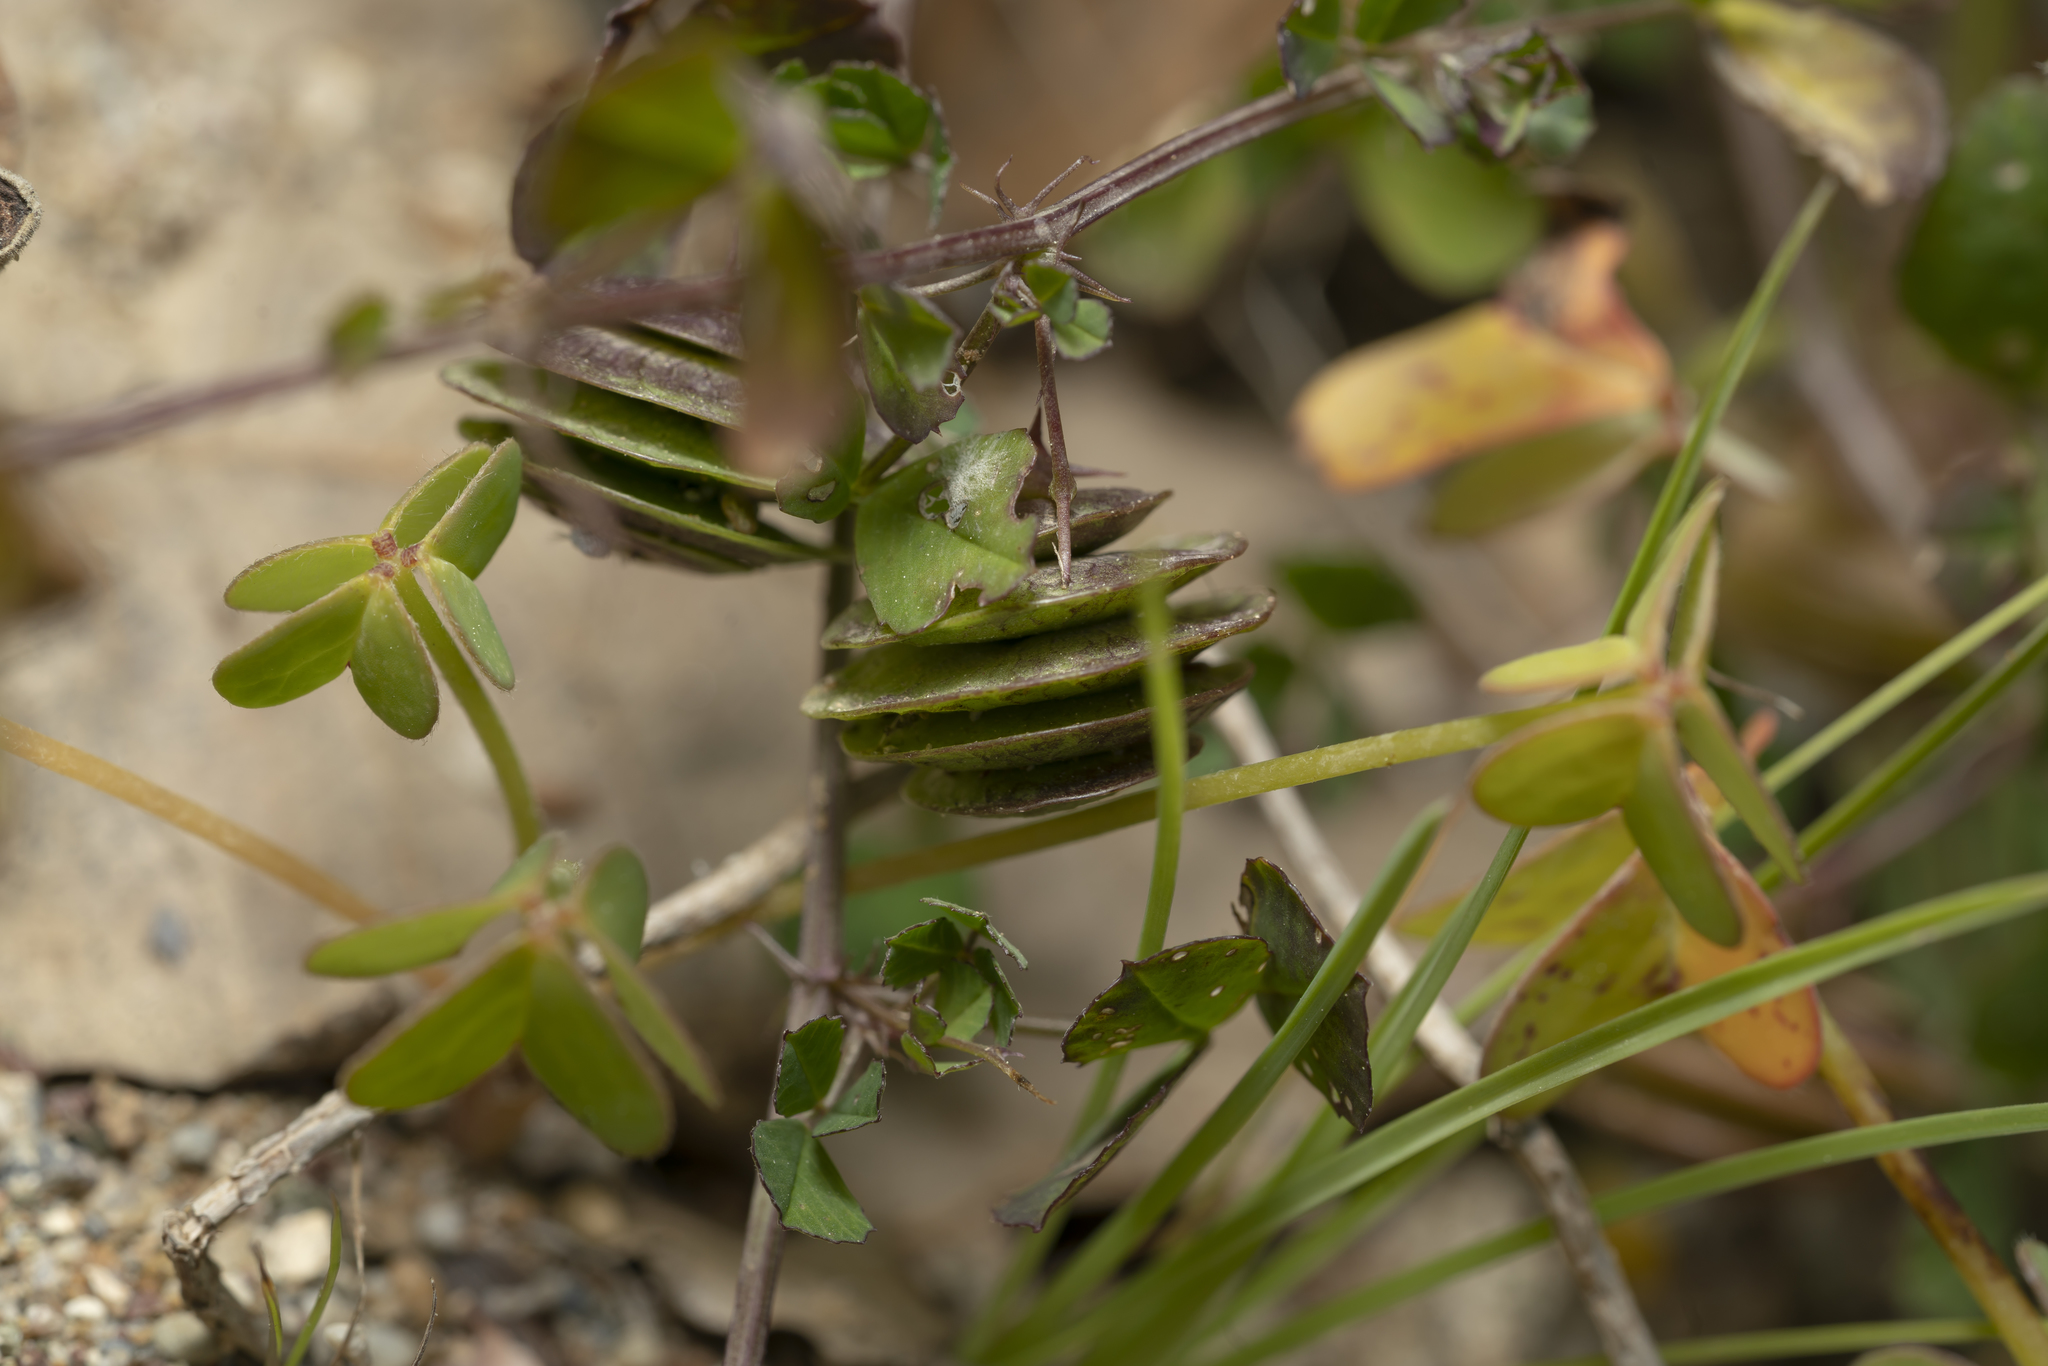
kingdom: Plantae
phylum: Tracheophyta
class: Magnoliopsida
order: Fabales
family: Fabaceae
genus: Medicago
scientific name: Medicago orbicularis
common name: Button medick
